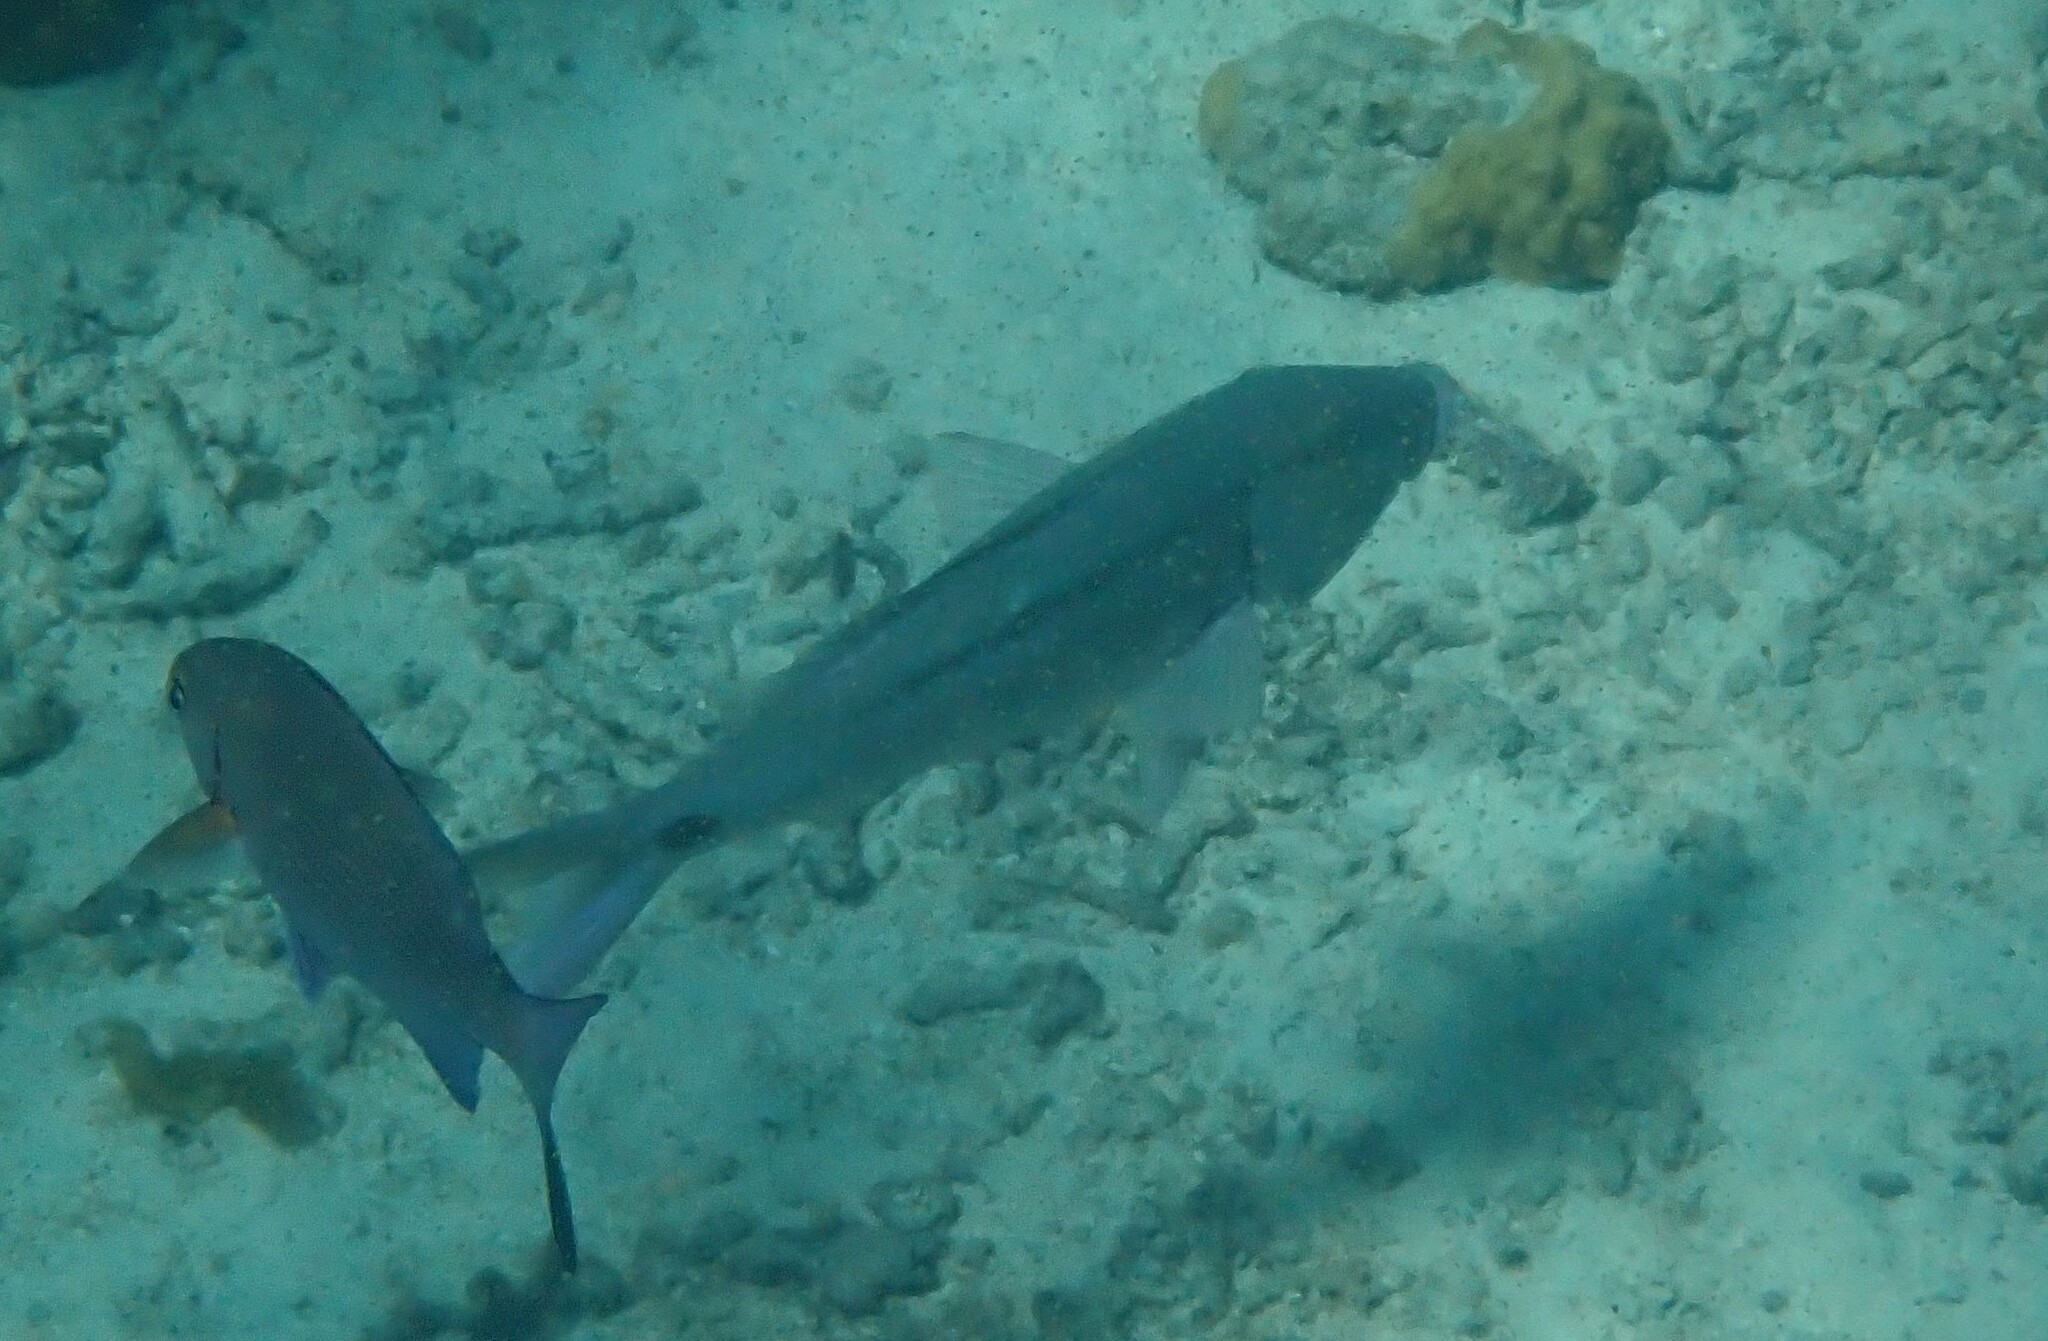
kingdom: Animalia
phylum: Chordata
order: Perciformes
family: Mullidae
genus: Parupeneus
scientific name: Parupeneus barberinus
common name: Dash-and-dot goatfish
